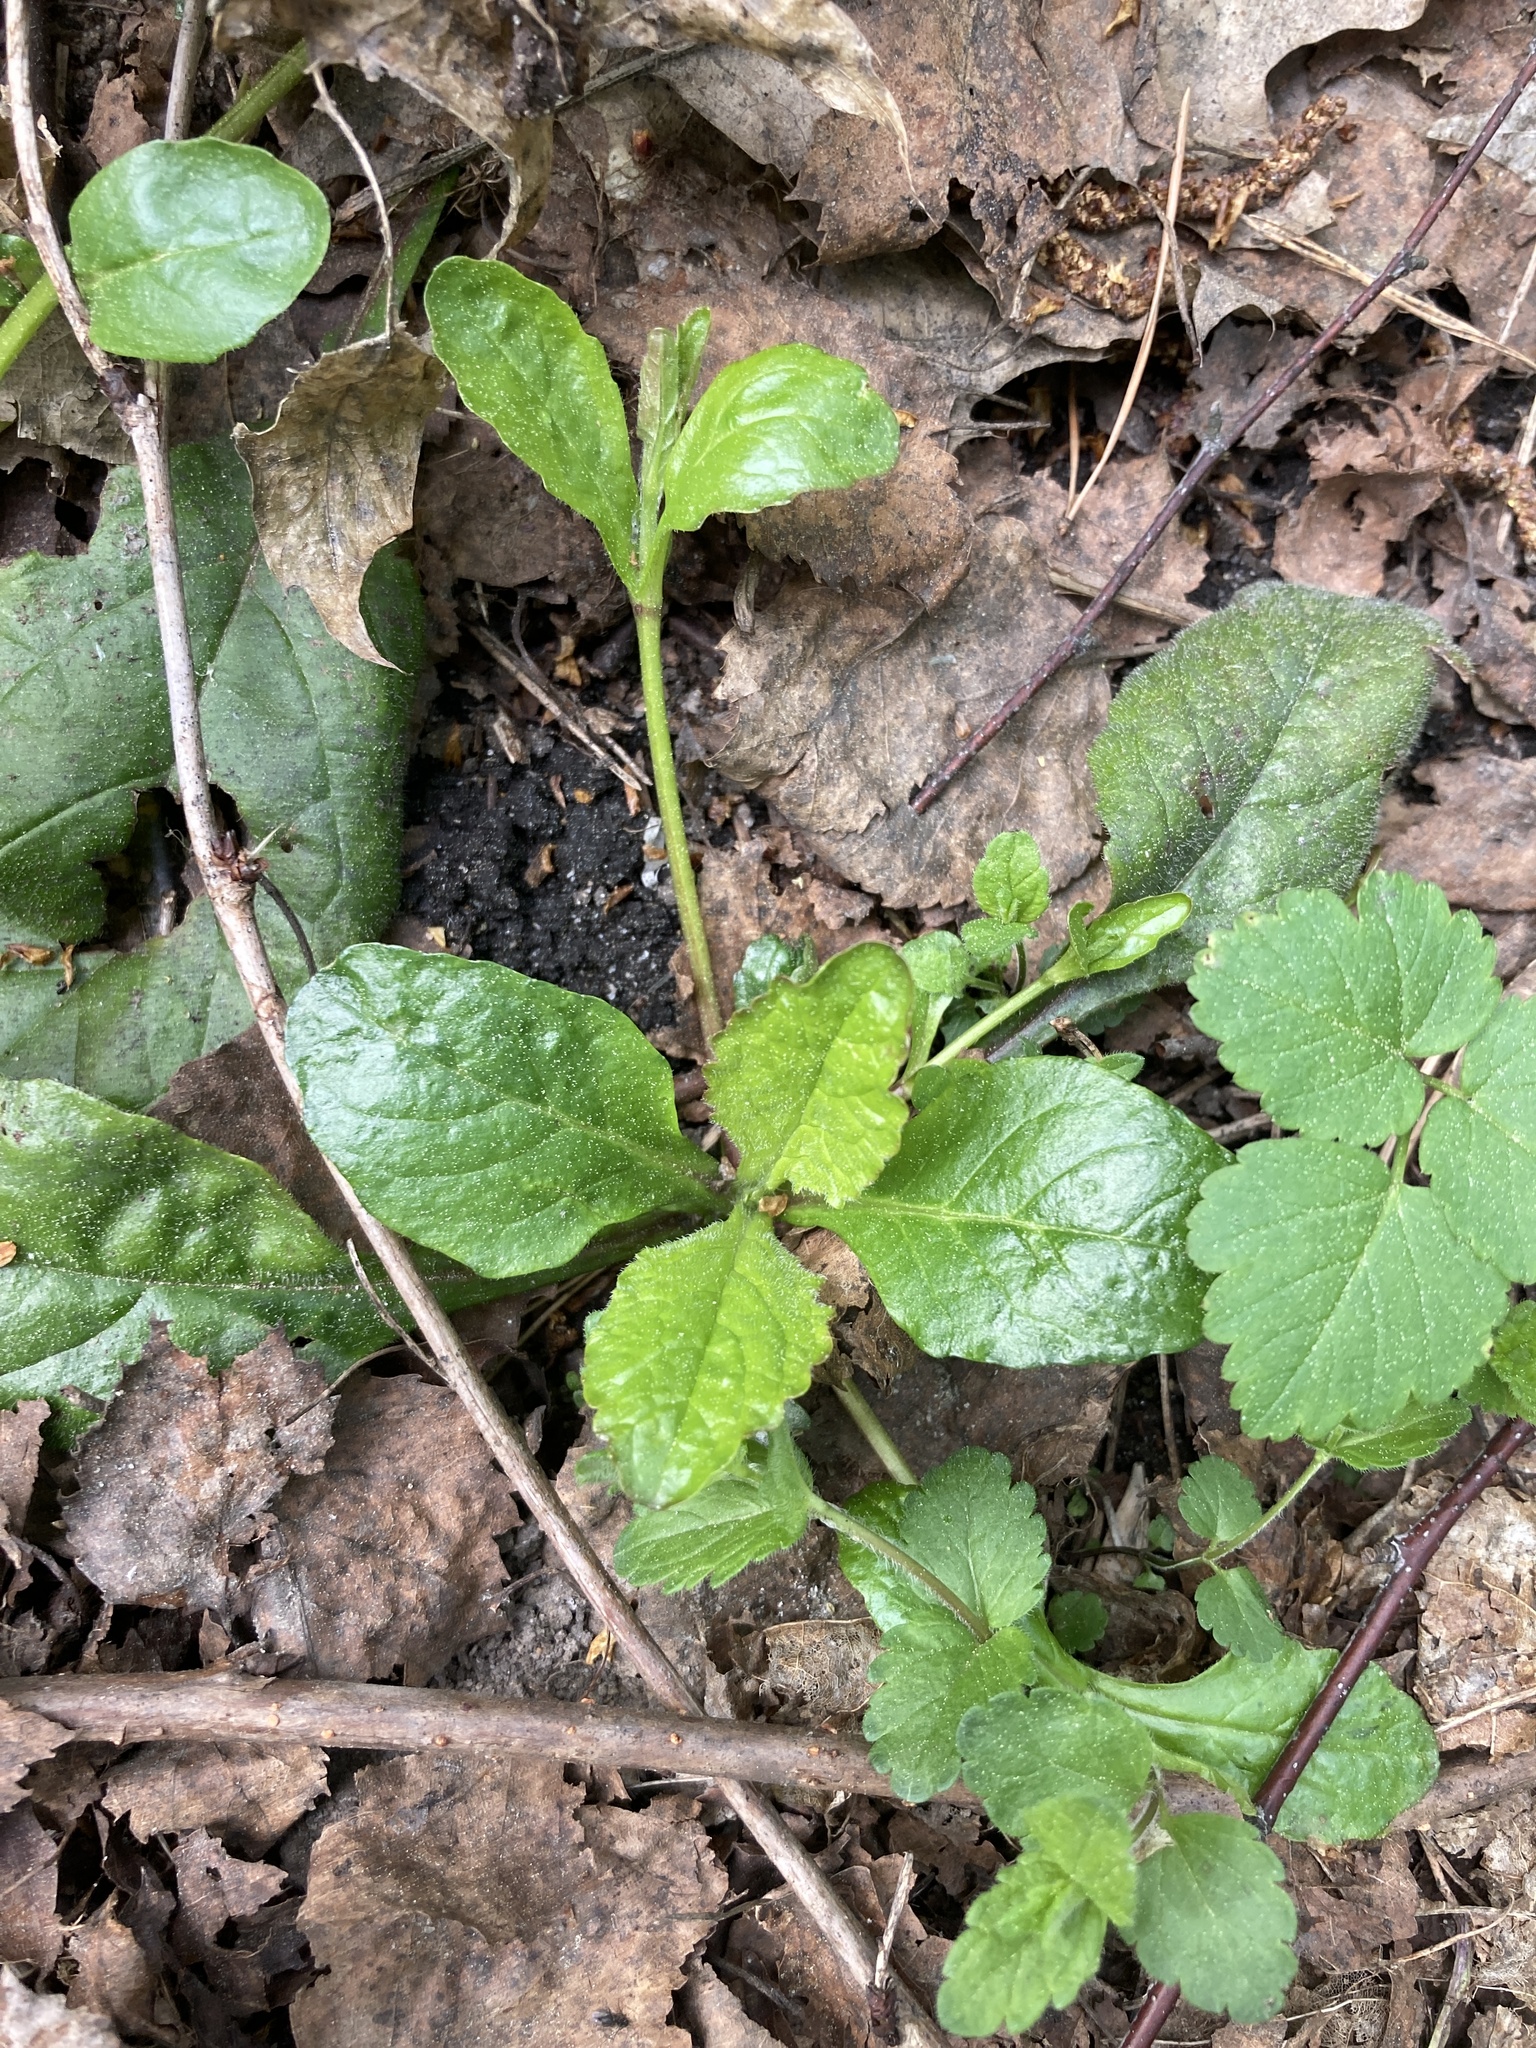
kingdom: Plantae
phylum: Tracheophyta
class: Magnoliopsida
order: Lamiales
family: Lamiaceae
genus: Ajuga
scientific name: Ajuga reptans
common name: Bugle
